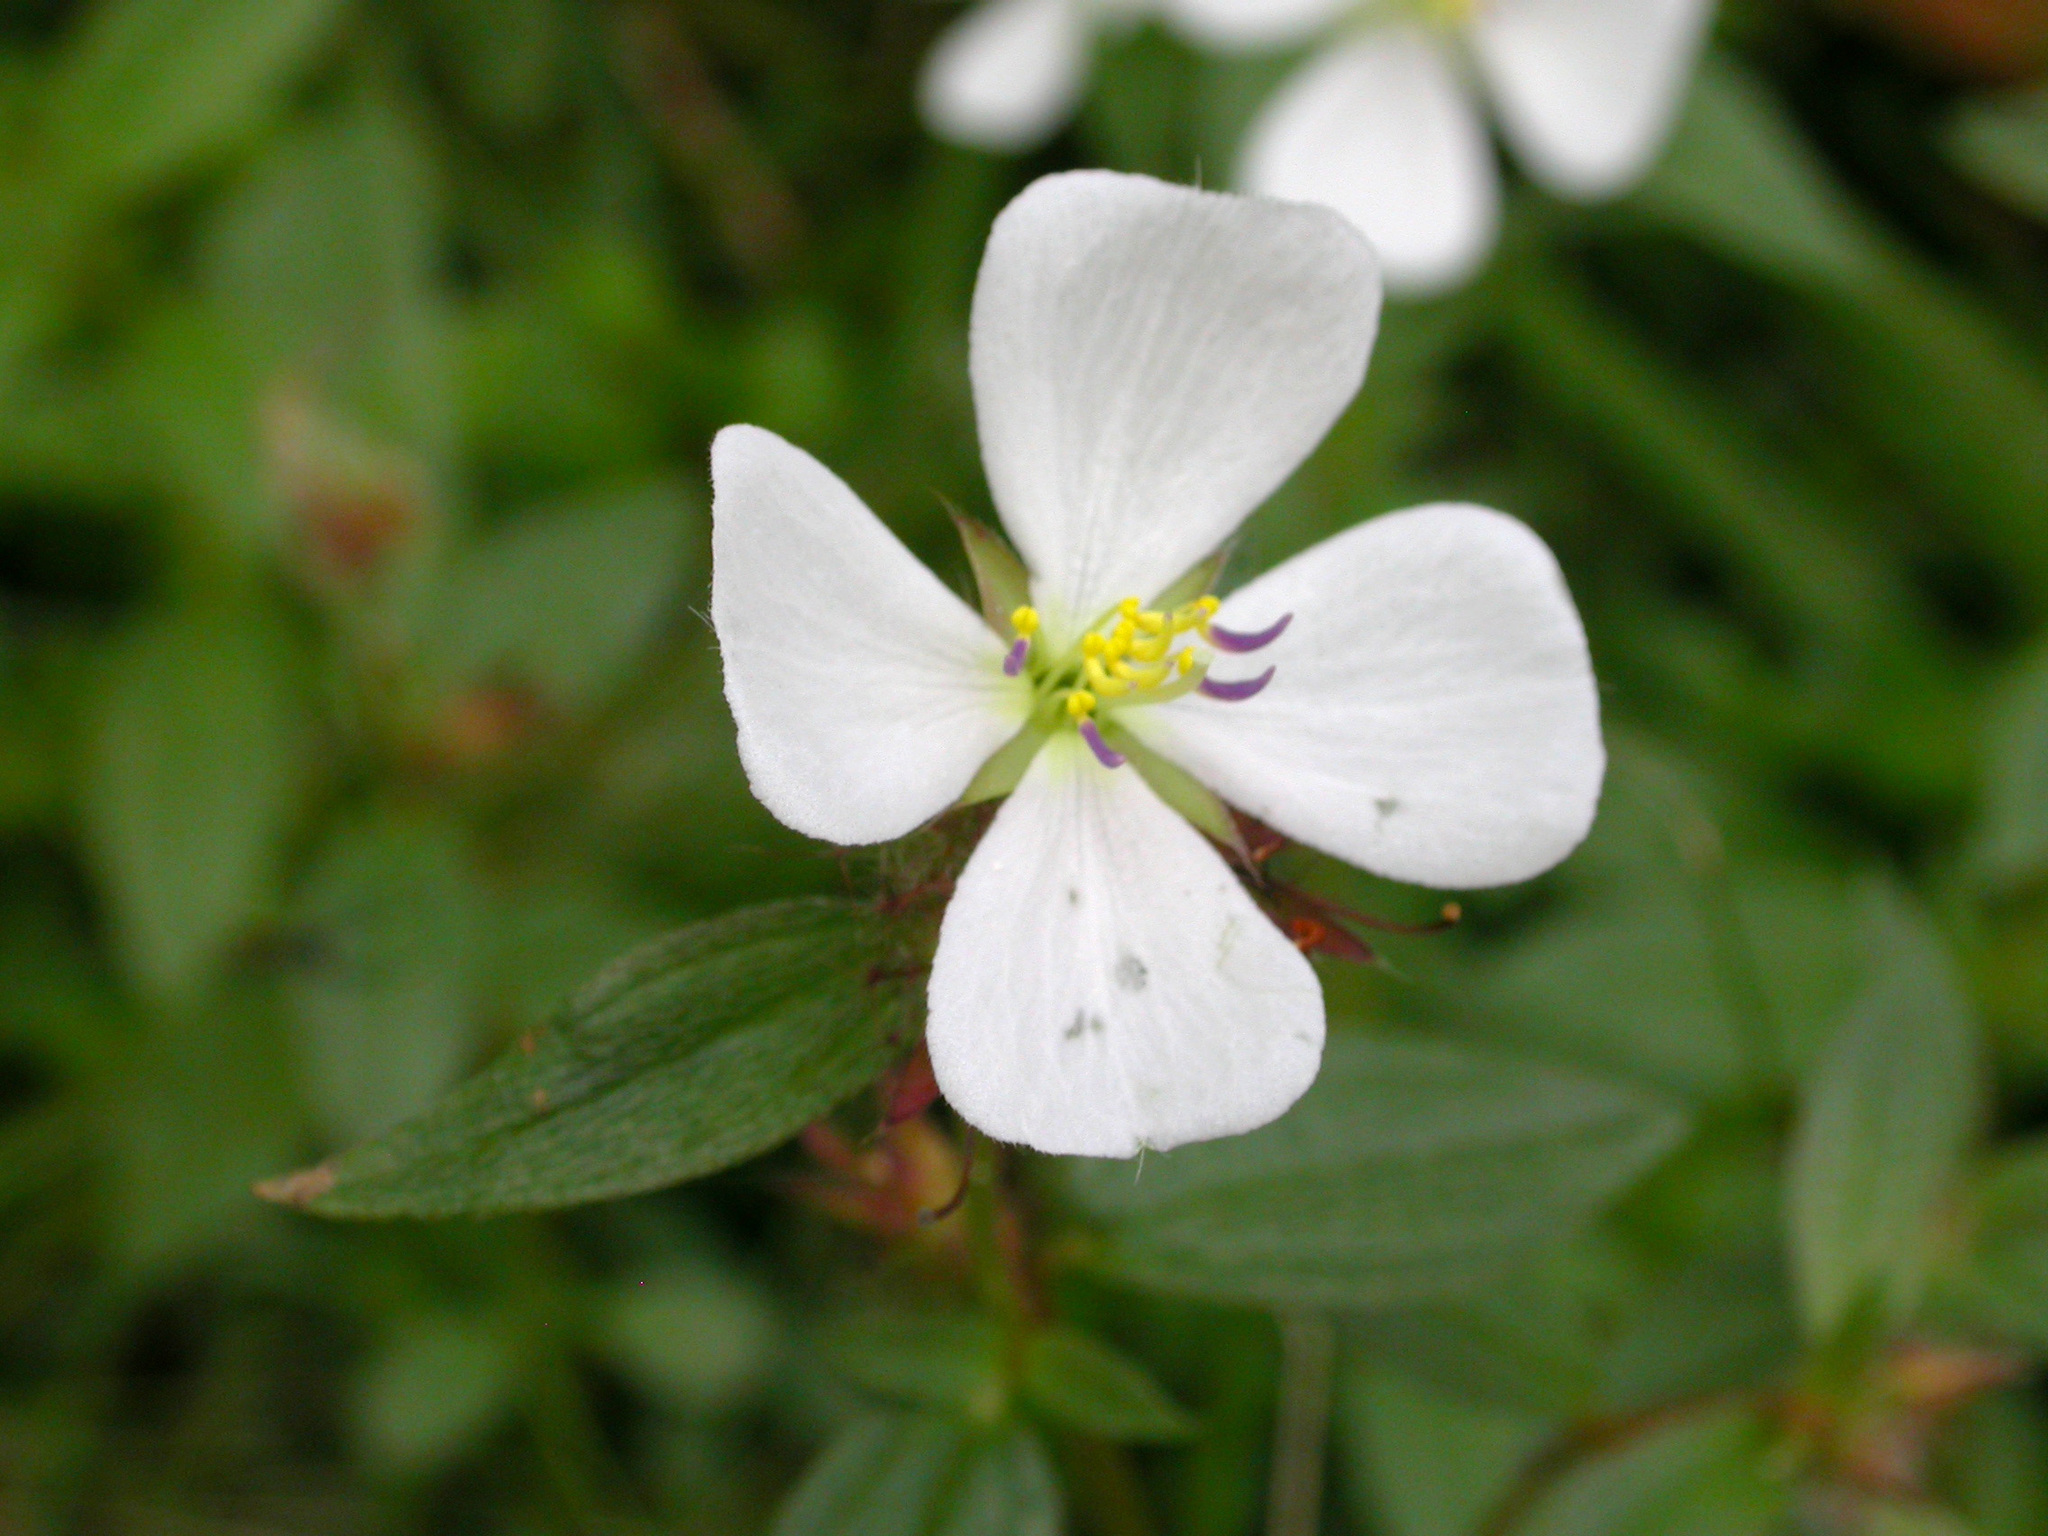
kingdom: Plantae
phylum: Tracheophyta
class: Magnoliopsida
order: Myrtales
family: Melastomataceae
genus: Pterolepis
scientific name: Pterolepis glomerata
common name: False meadowbeauty
